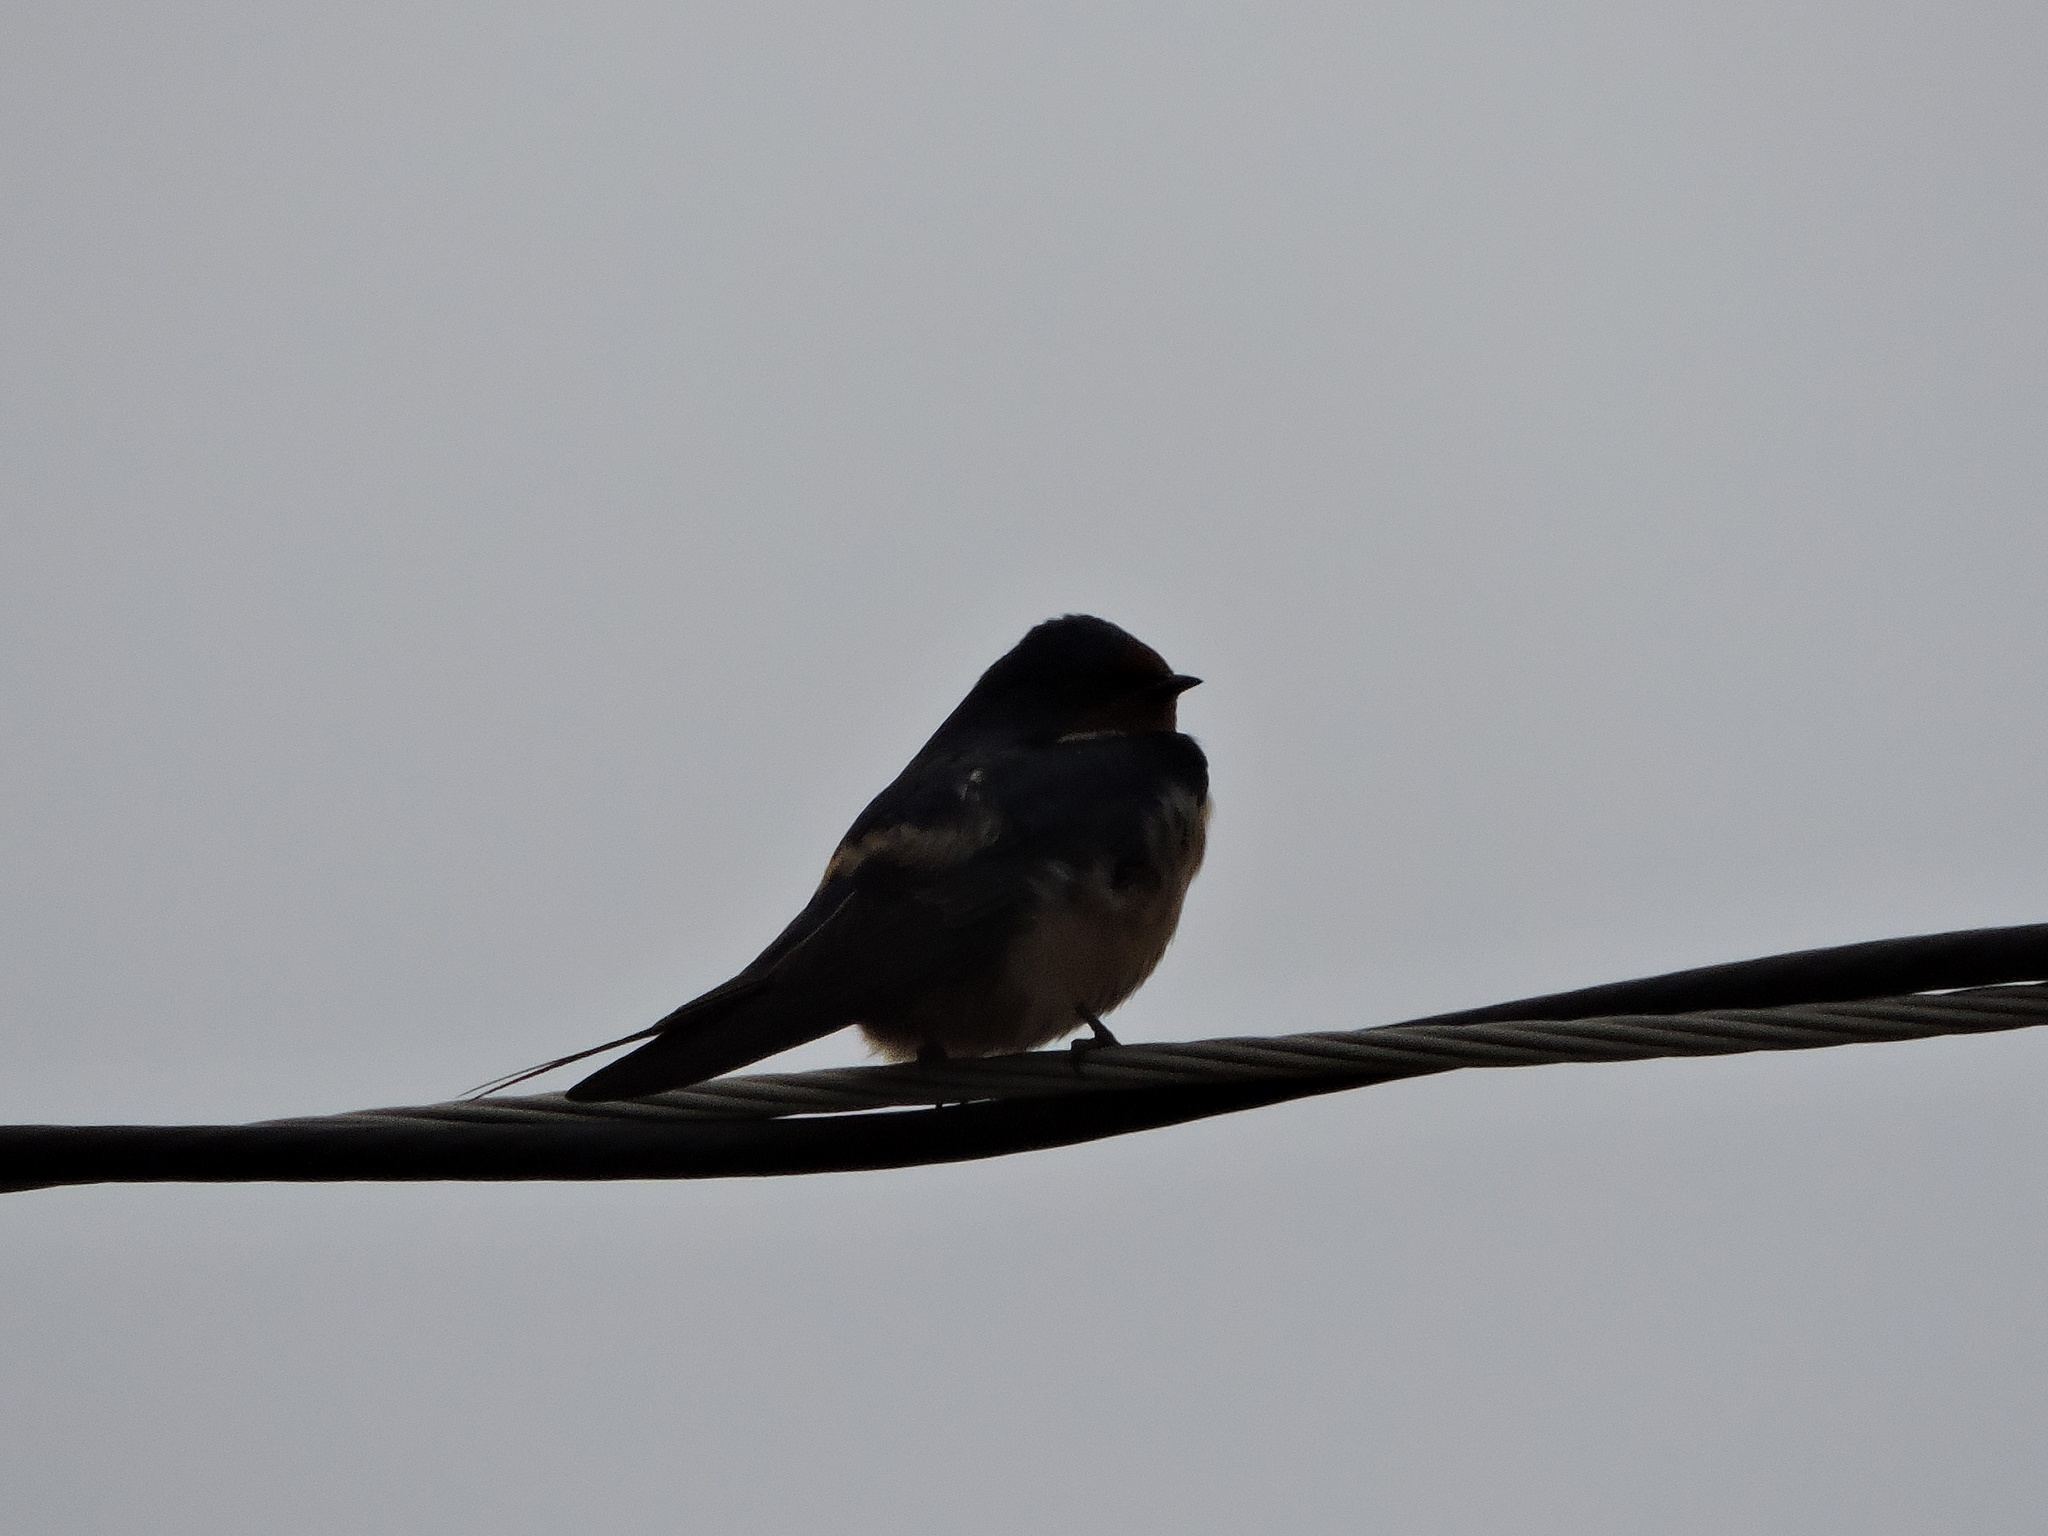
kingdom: Animalia
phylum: Chordata
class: Aves
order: Passeriformes
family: Hirundinidae
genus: Hirundo
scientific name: Hirundo rustica
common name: Barn swallow
